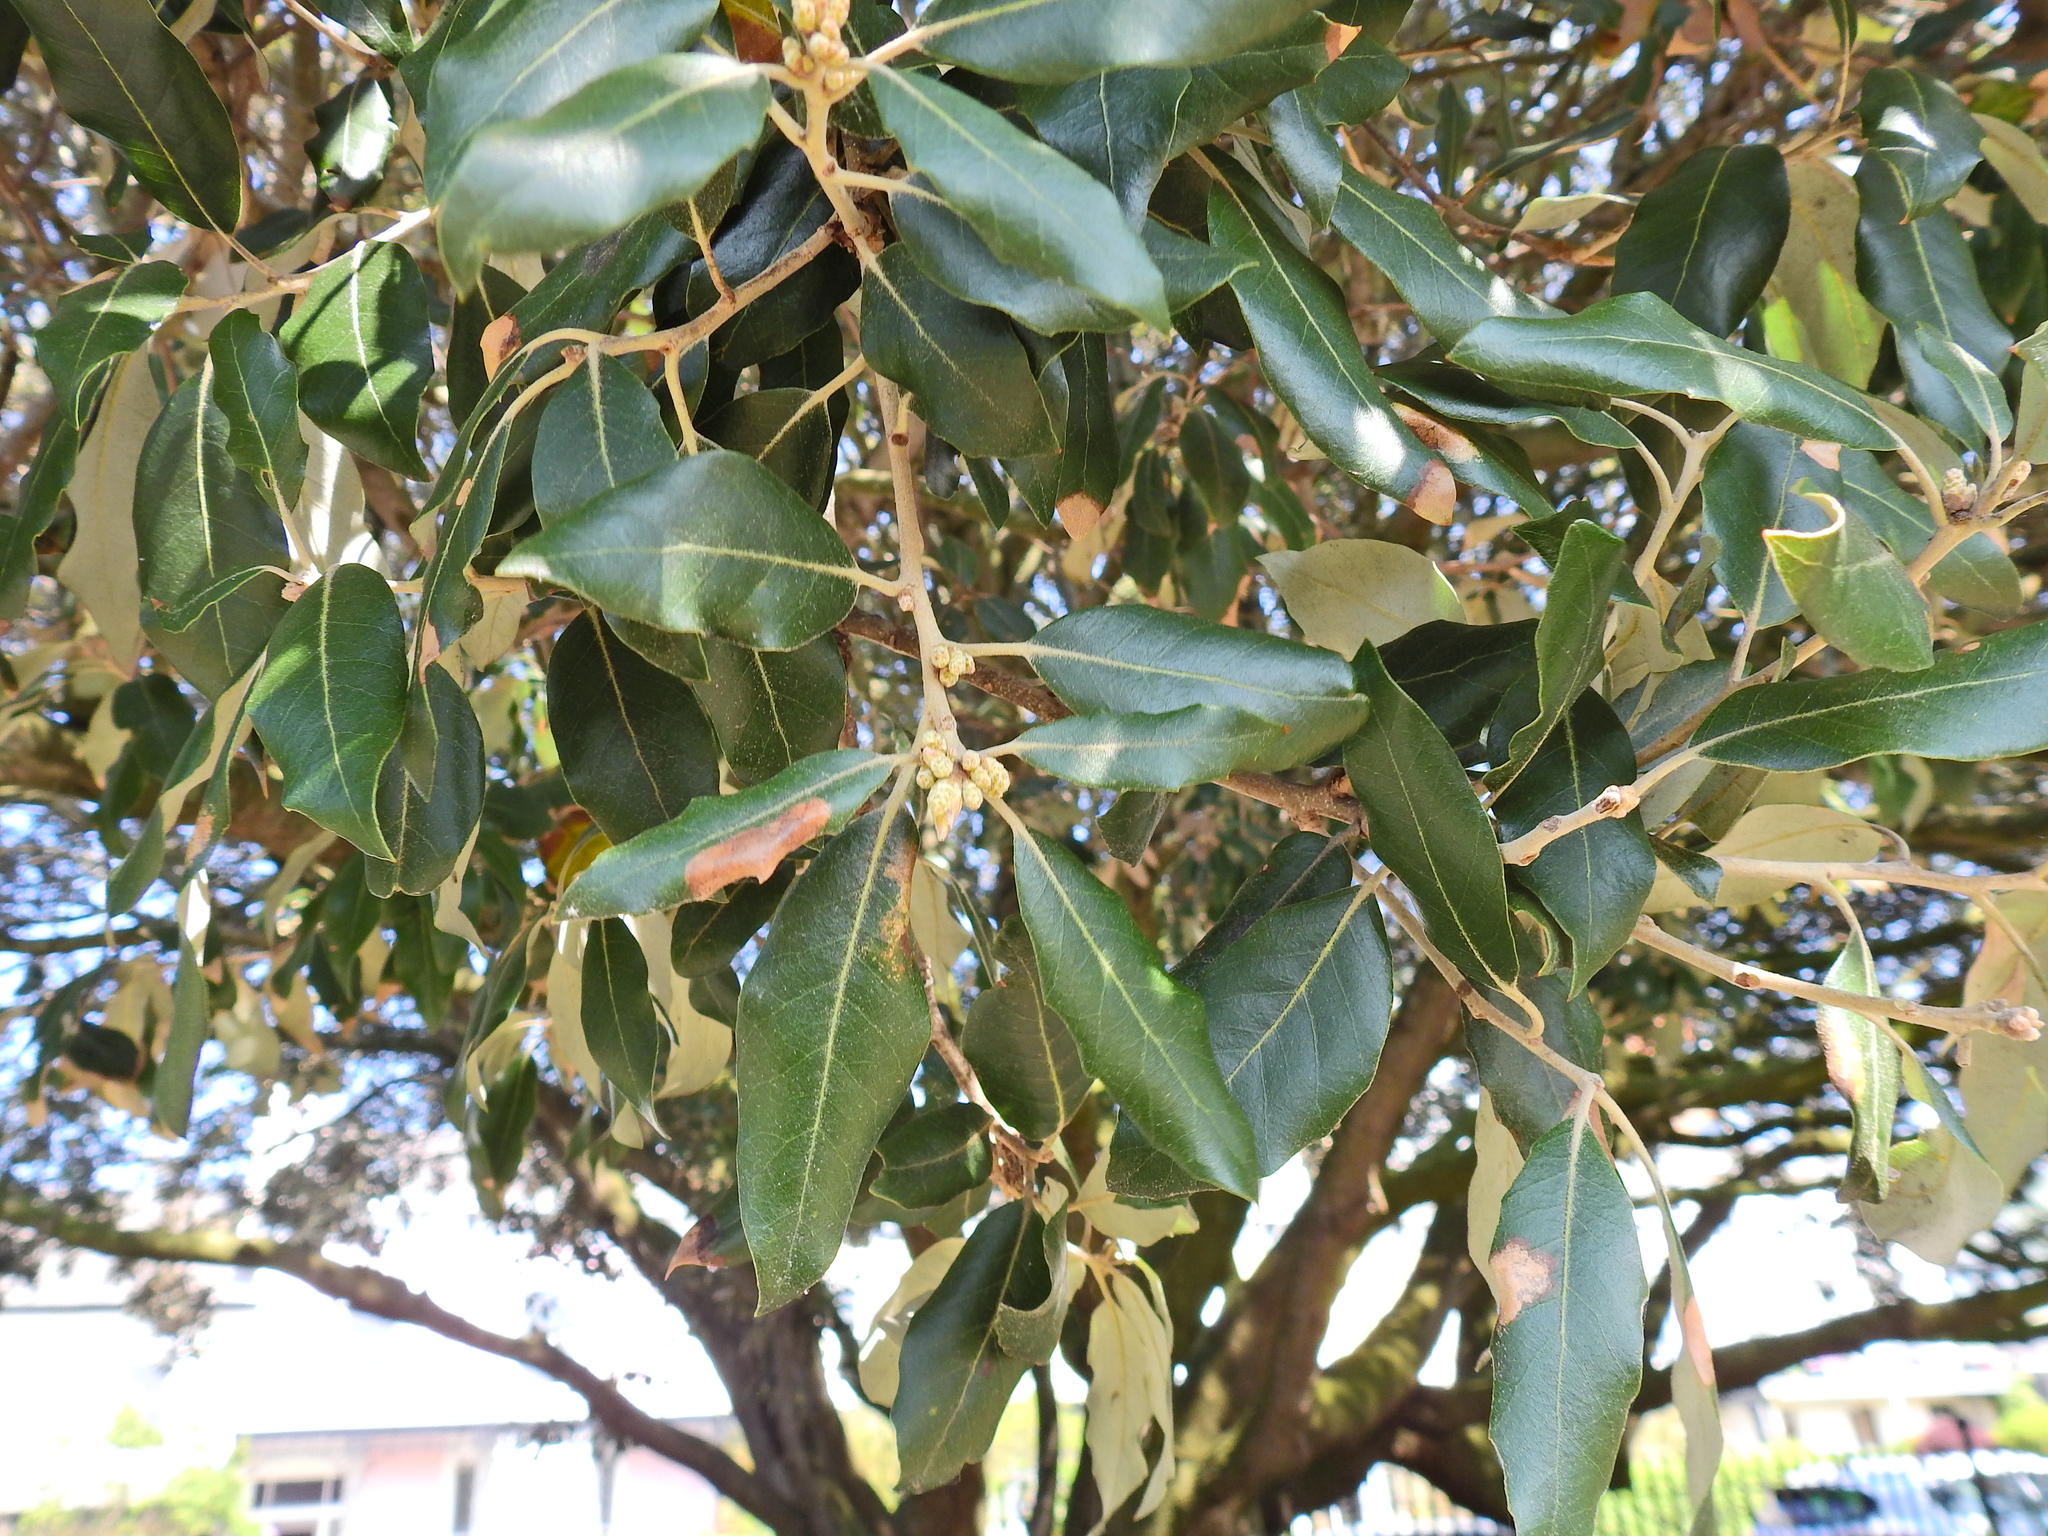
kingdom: Plantae
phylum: Tracheophyta
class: Magnoliopsida
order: Fagales
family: Fagaceae
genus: Quercus
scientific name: Quercus ilex
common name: Evergreen oak
